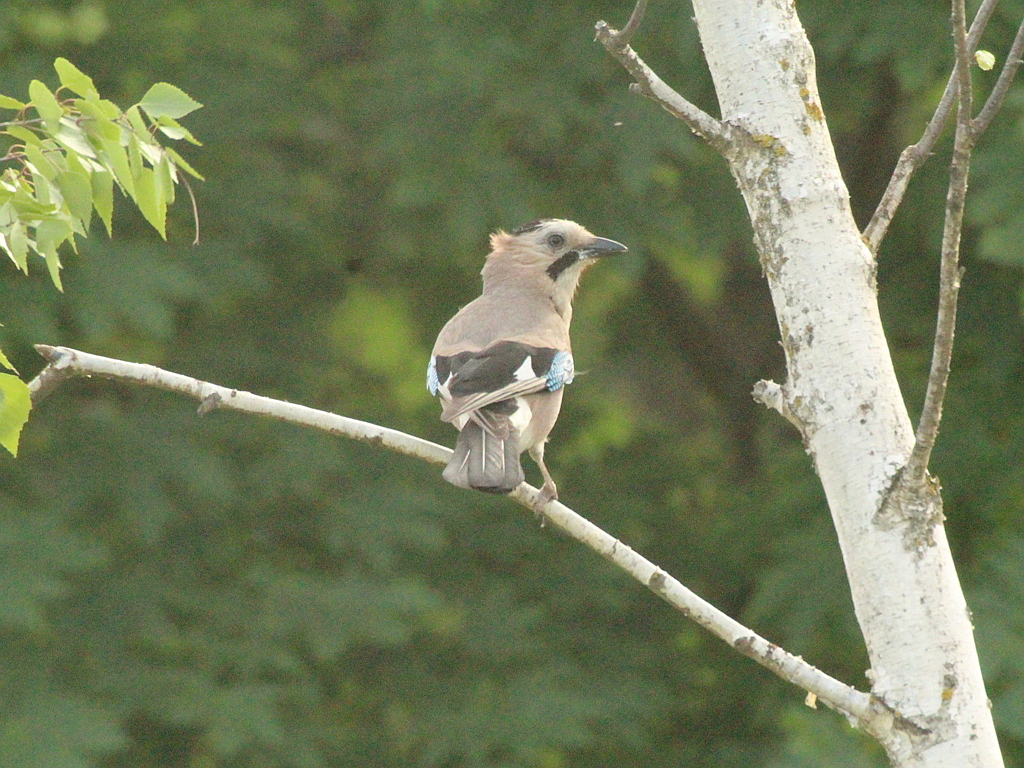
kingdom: Animalia
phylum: Chordata
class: Aves
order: Passeriformes
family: Corvidae
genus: Garrulus
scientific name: Garrulus glandarius
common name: Eurasian jay
